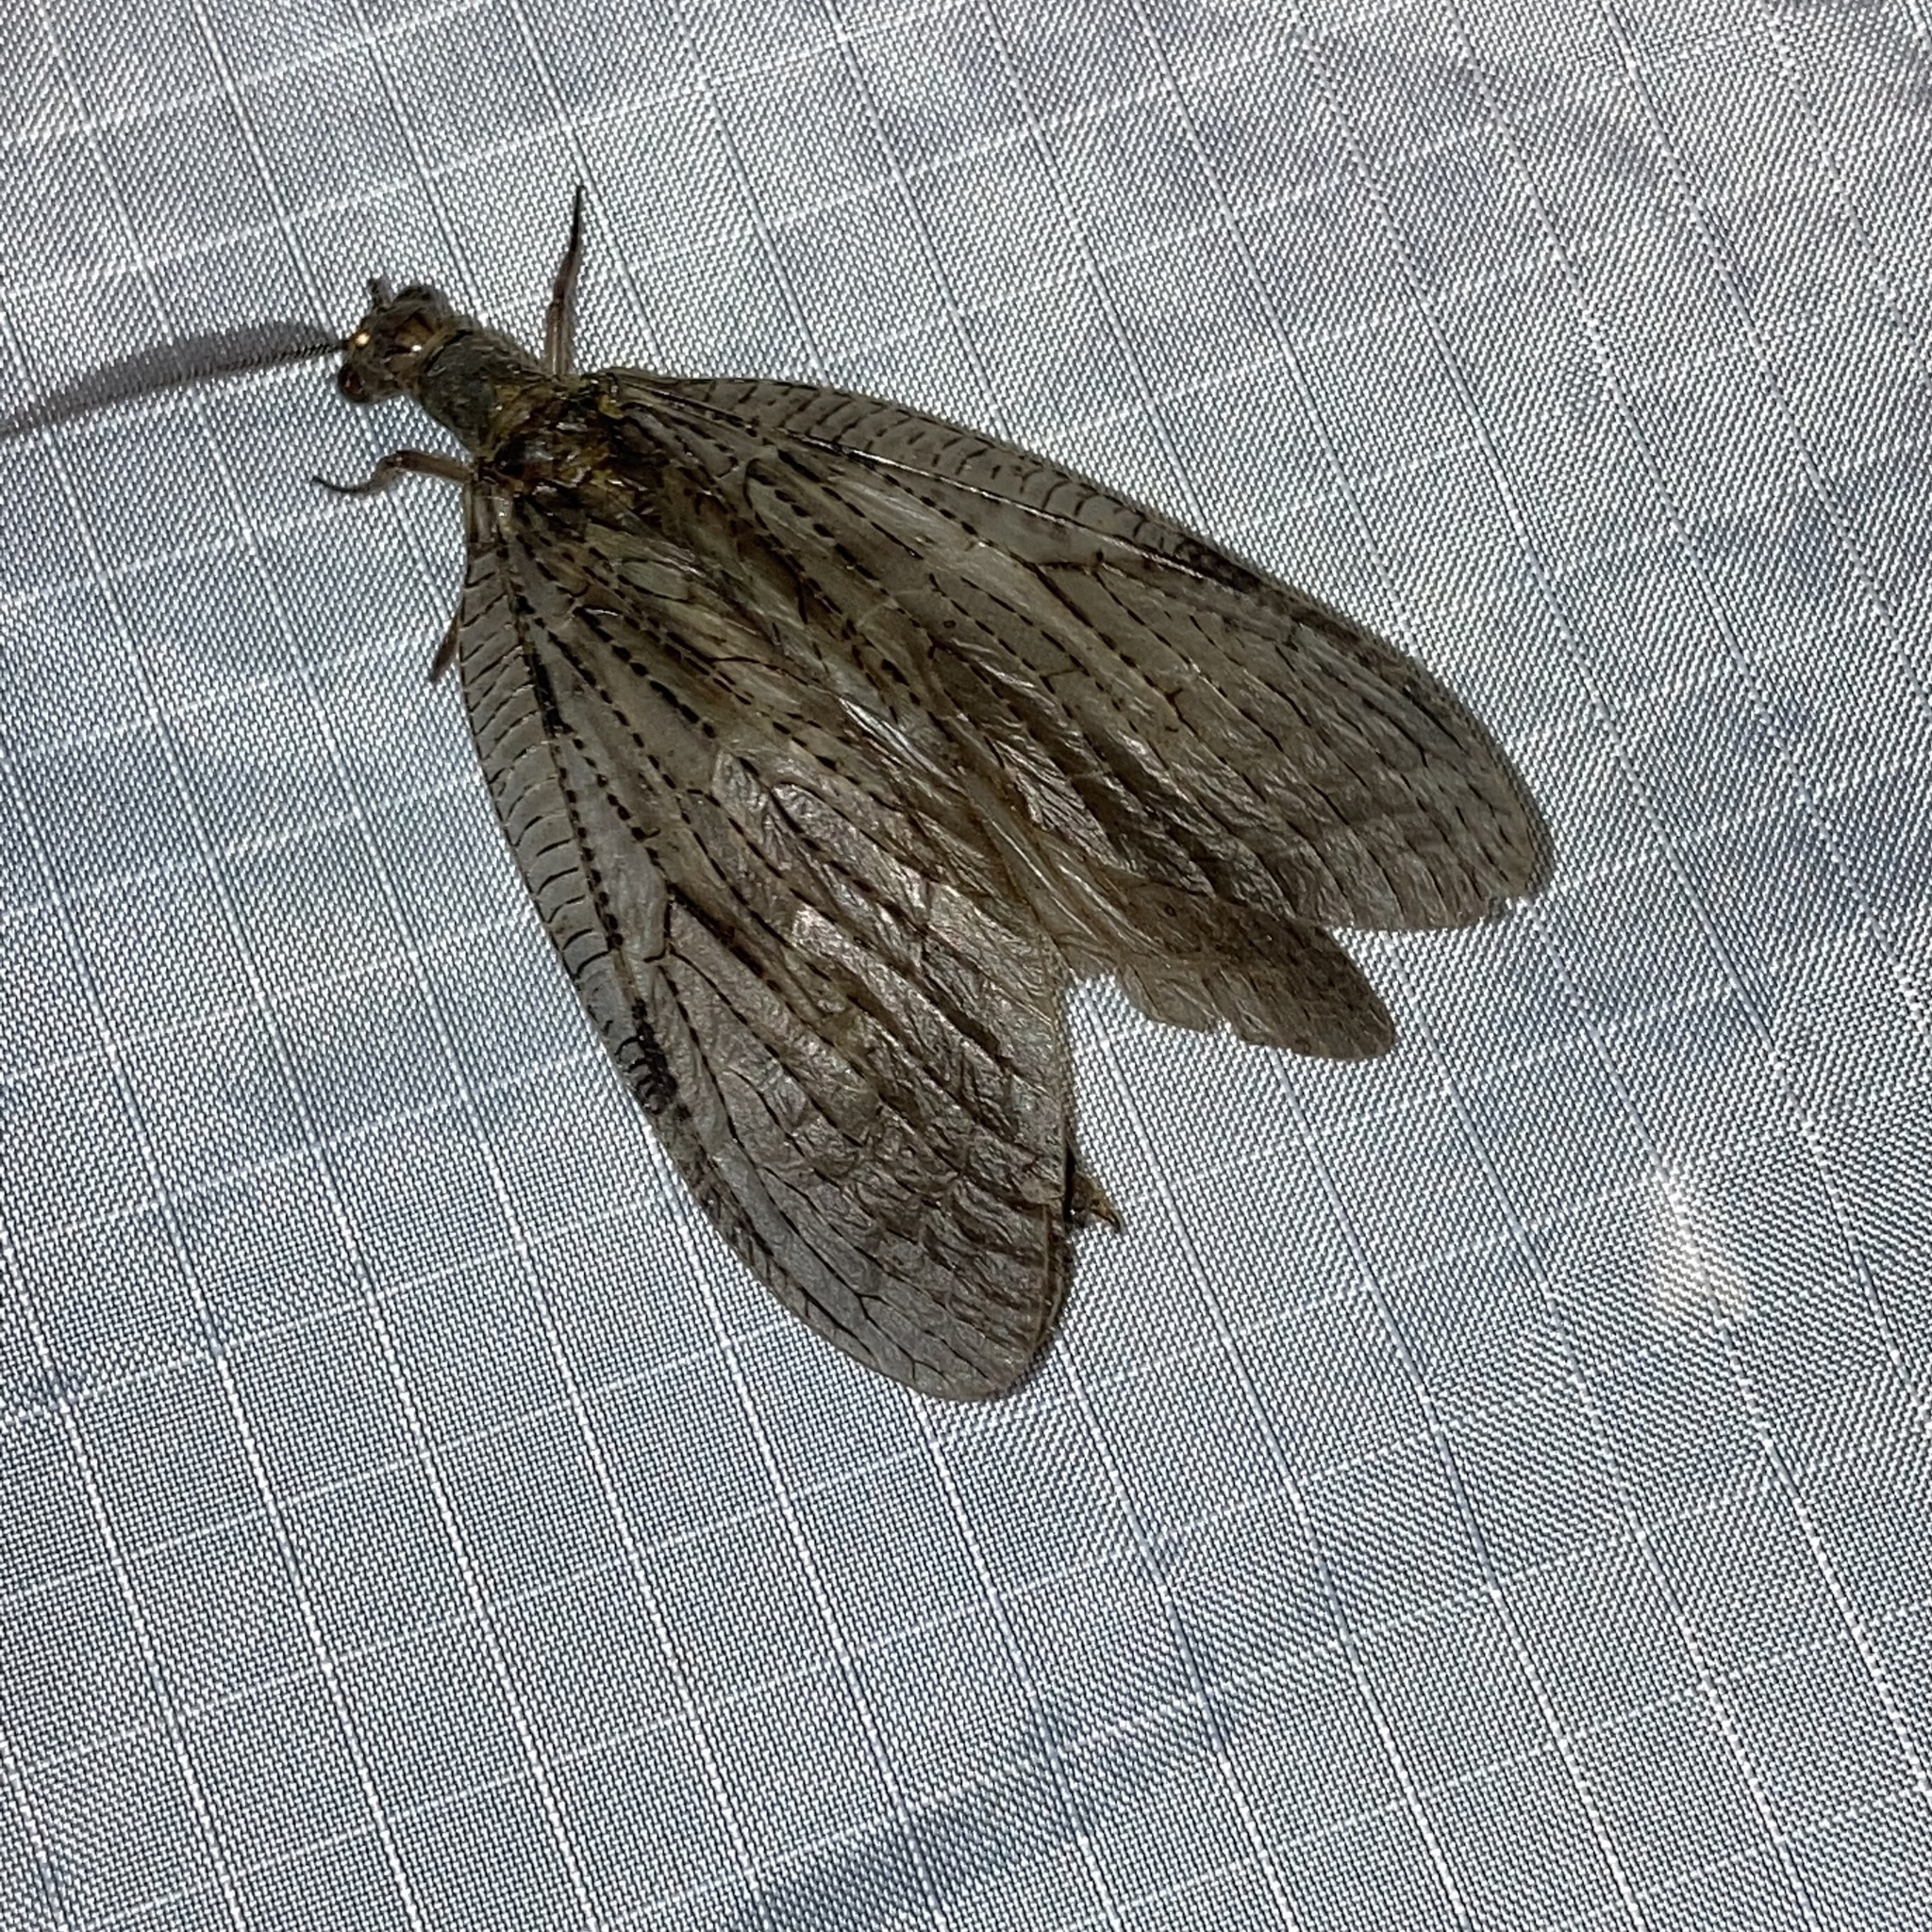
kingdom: Animalia
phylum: Arthropoda
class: Insecta
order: Megaloptera
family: Corydalidae
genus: Chauliodes
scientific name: Chauliodes pectinicornis
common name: Summer fishfly
